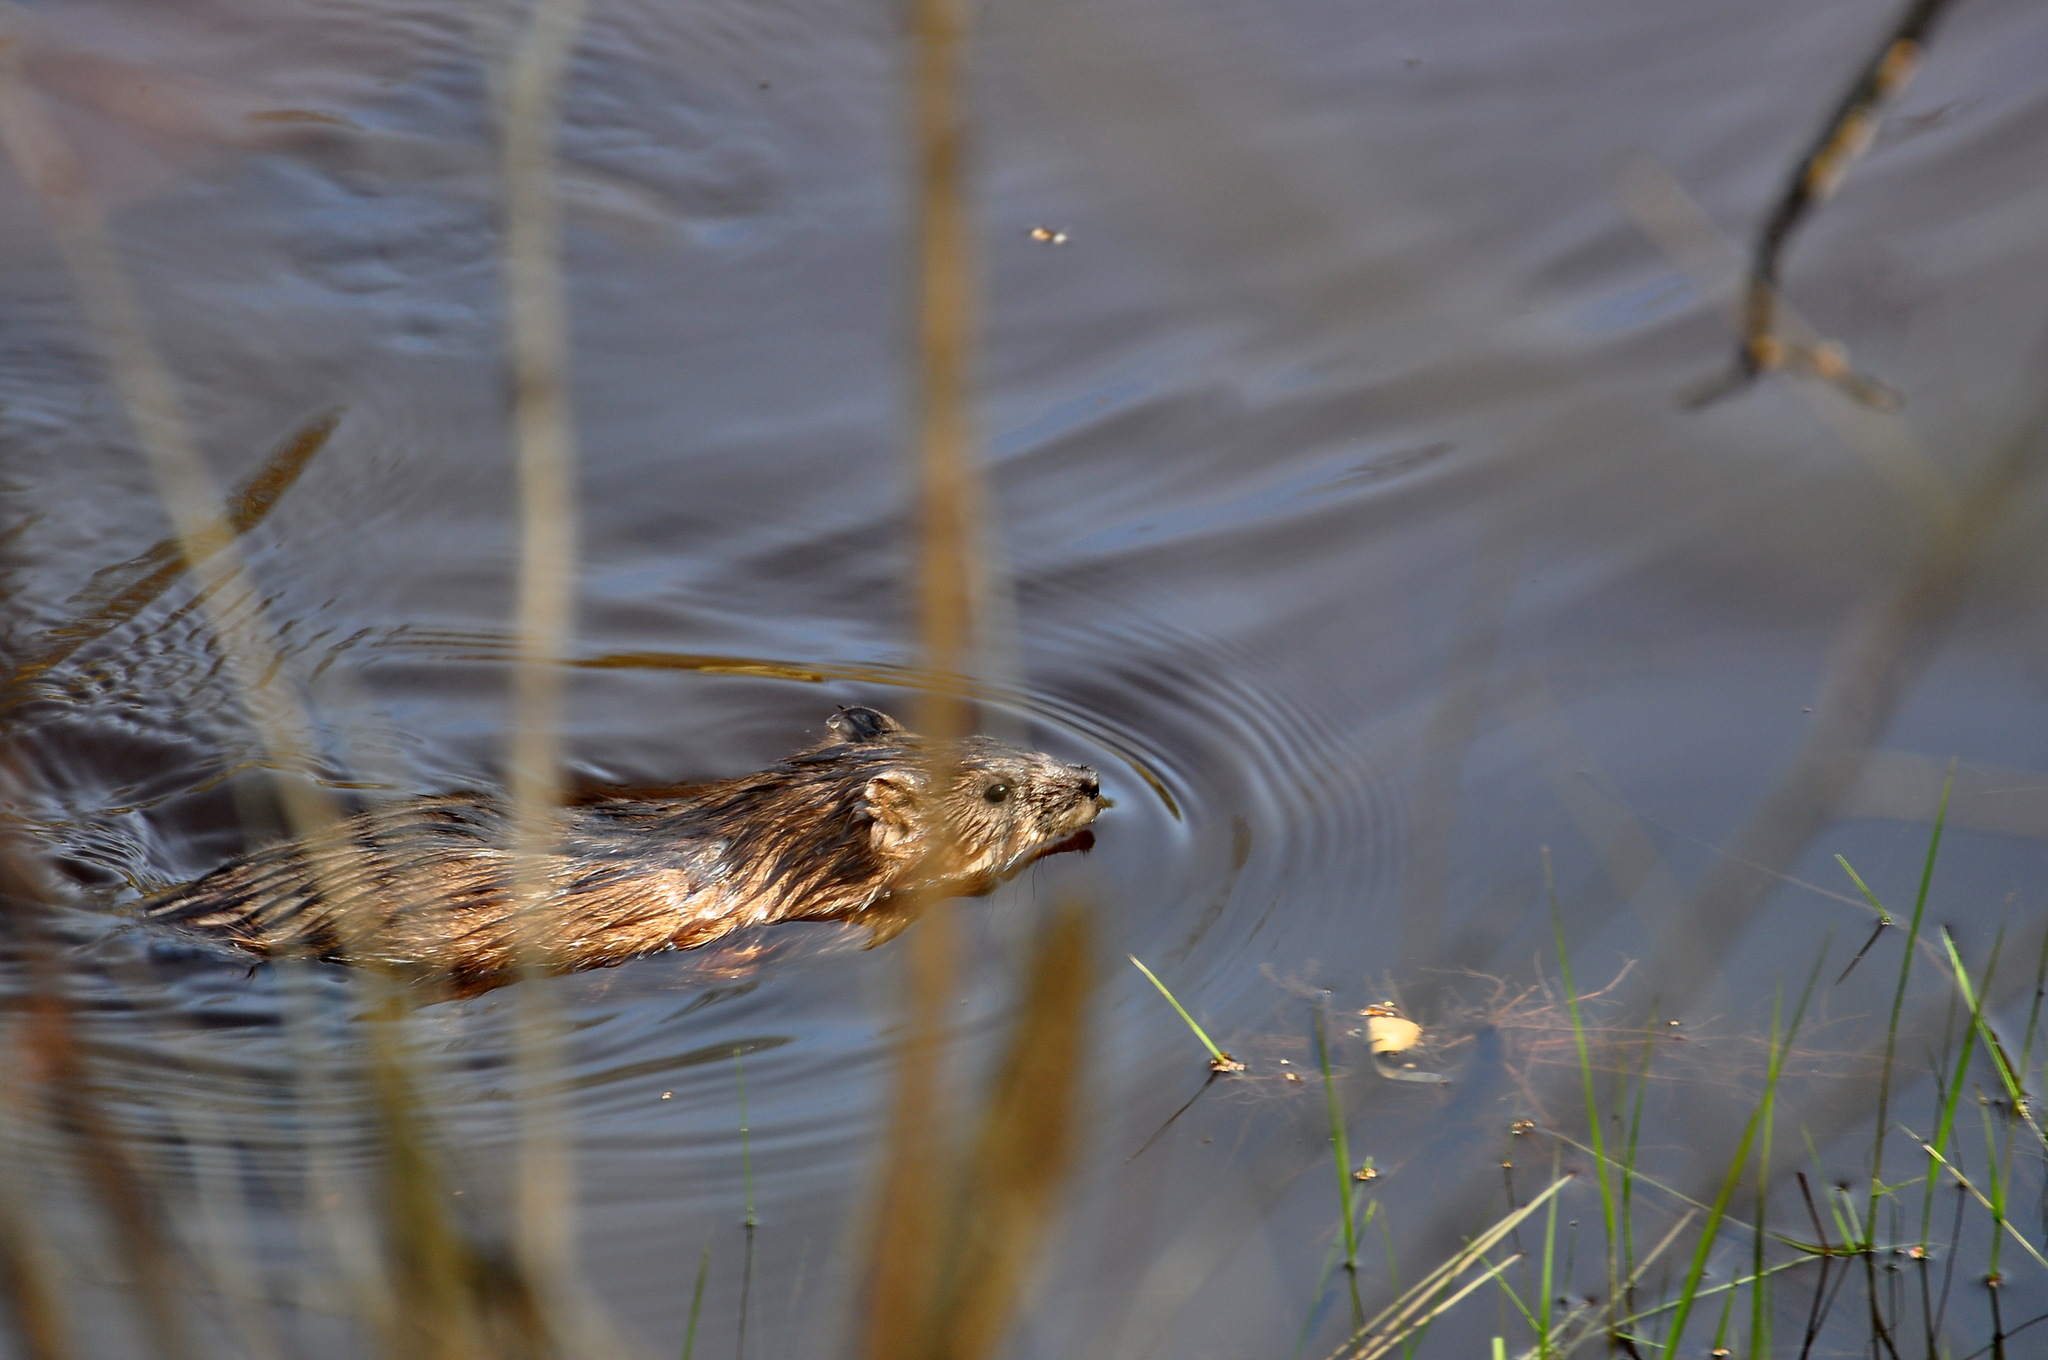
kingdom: Animalia
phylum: Chordata
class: Mammalia
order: Rodentia
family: Cricetidae
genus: Ondatra
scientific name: Ondatra zibethicus
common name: Muskrat
